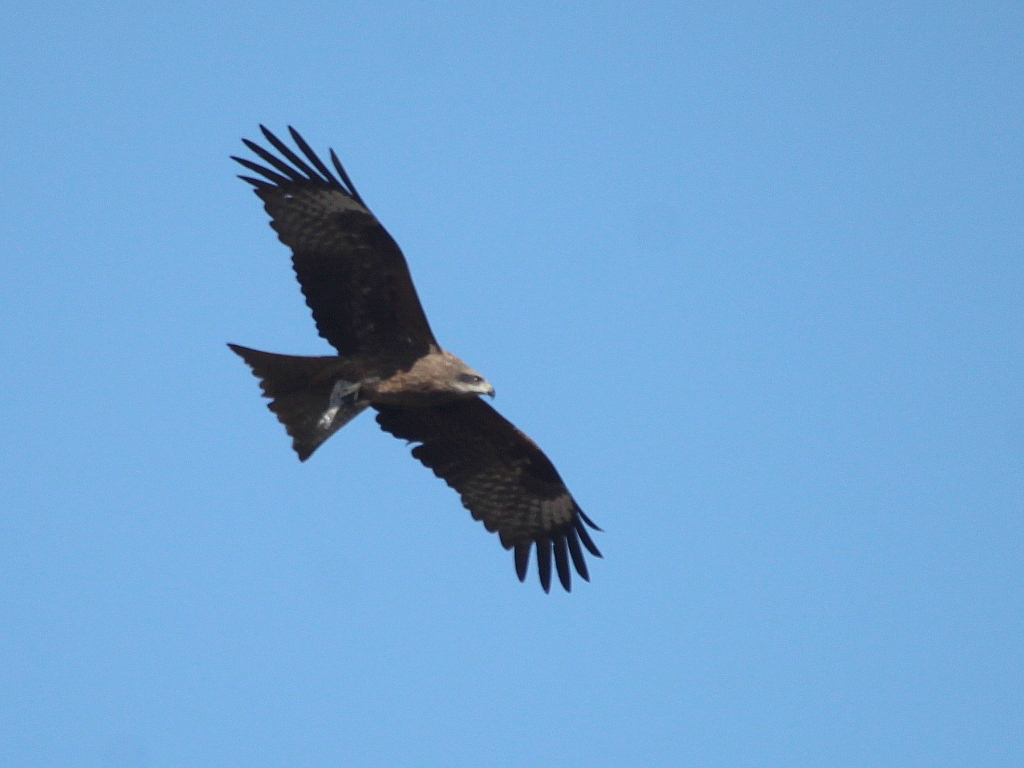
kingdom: Animalia
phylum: Chordata
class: Aves
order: Accipitriformes
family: Accipitridae
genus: Milvus
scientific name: Milvus migrans
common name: Black kite
